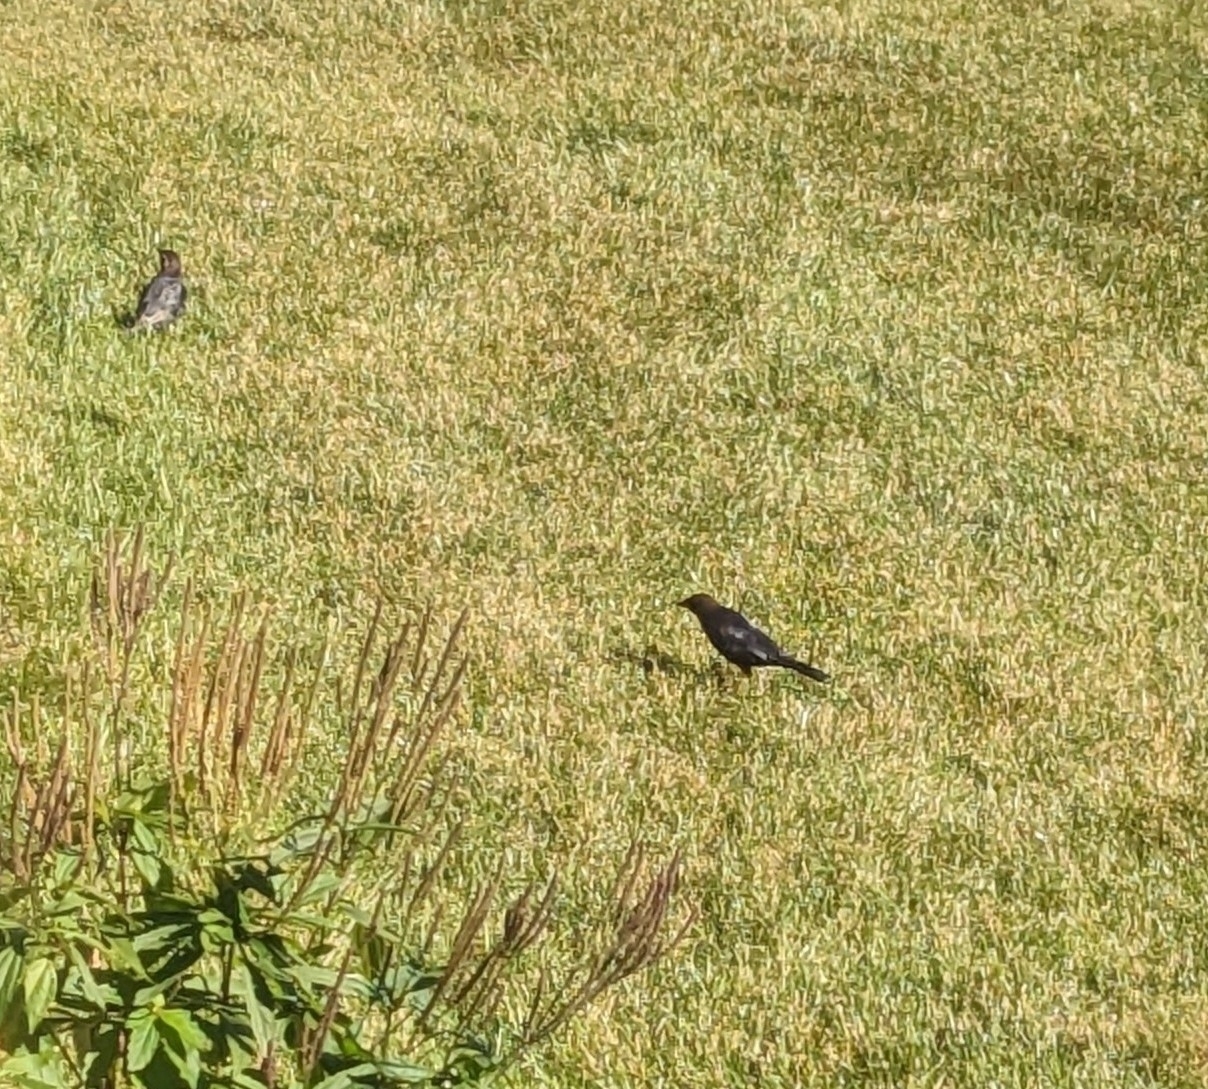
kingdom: Animalia
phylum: Chordata
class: Aves
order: Passeriformes
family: Icteridae
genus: Molothrus
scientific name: Molothrus ater
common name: Brown-headed cowbird
